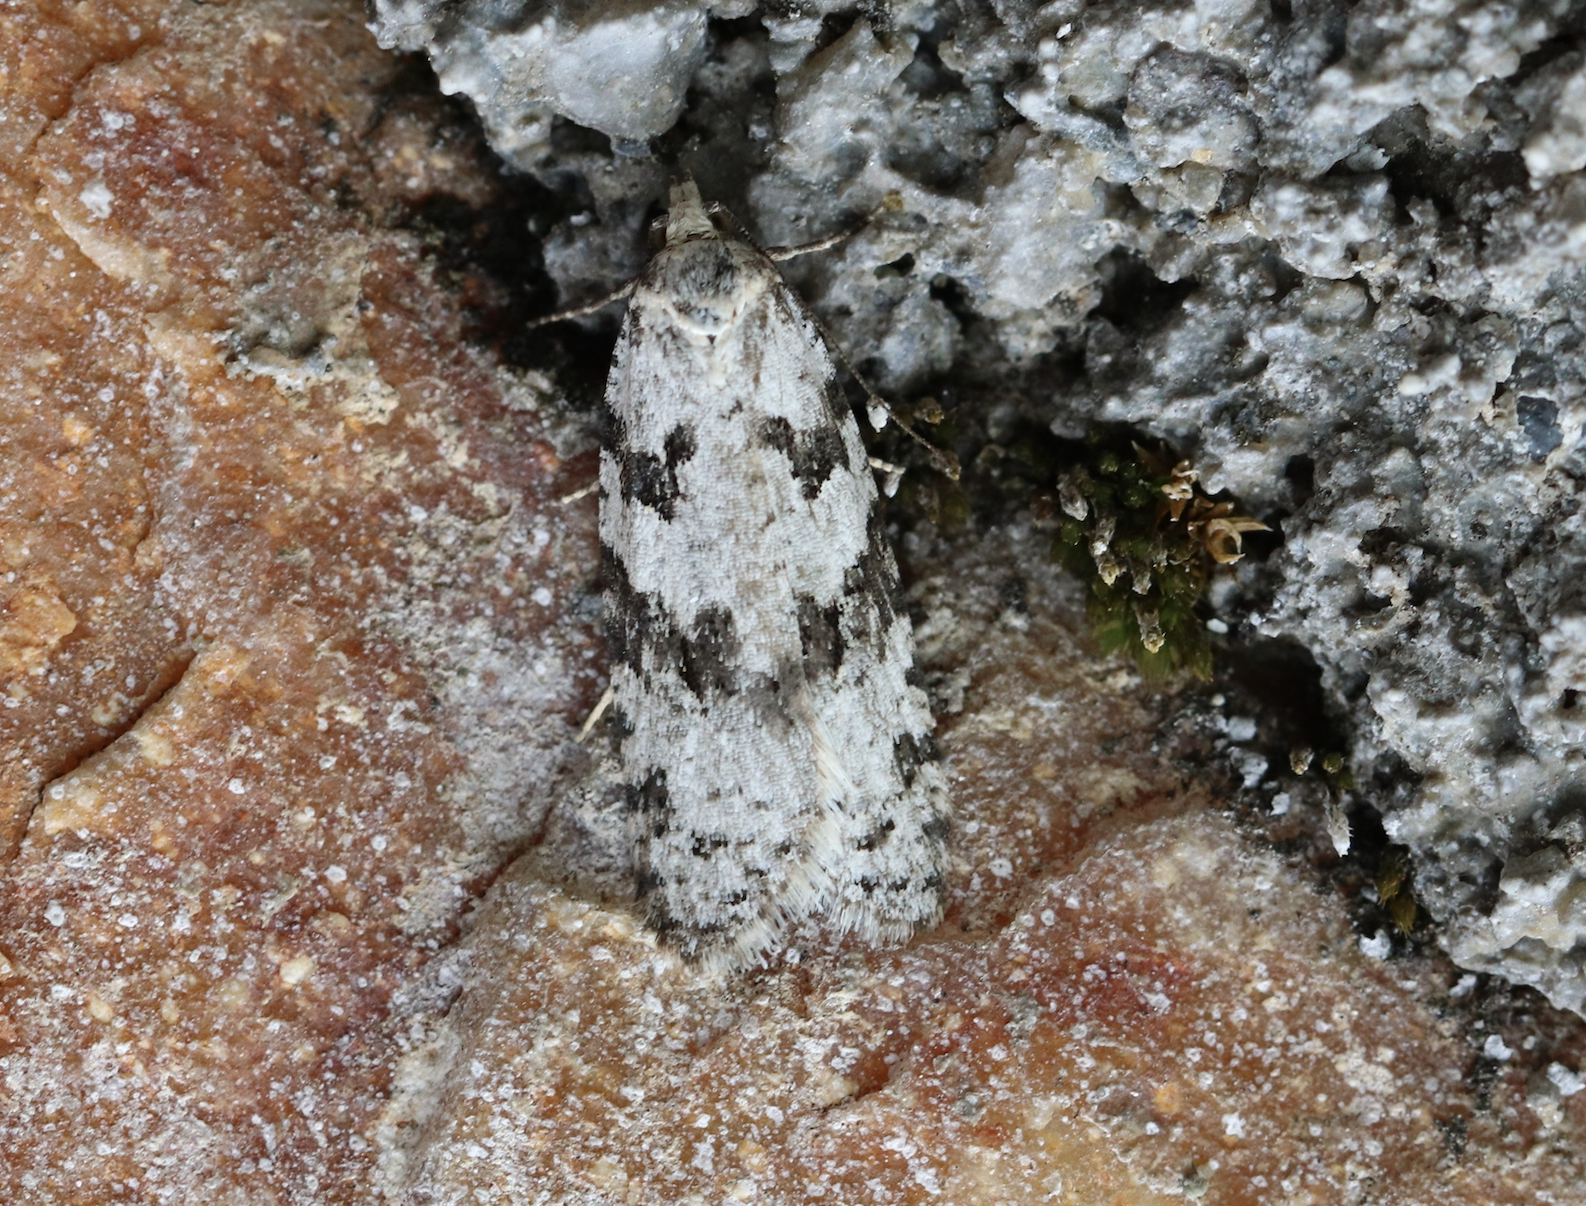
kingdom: Animalia
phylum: Arthropoda
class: Insecta
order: Lepidoptera
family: Tortricidae
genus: Eana
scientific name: Eana penziana
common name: Large mottled shade
